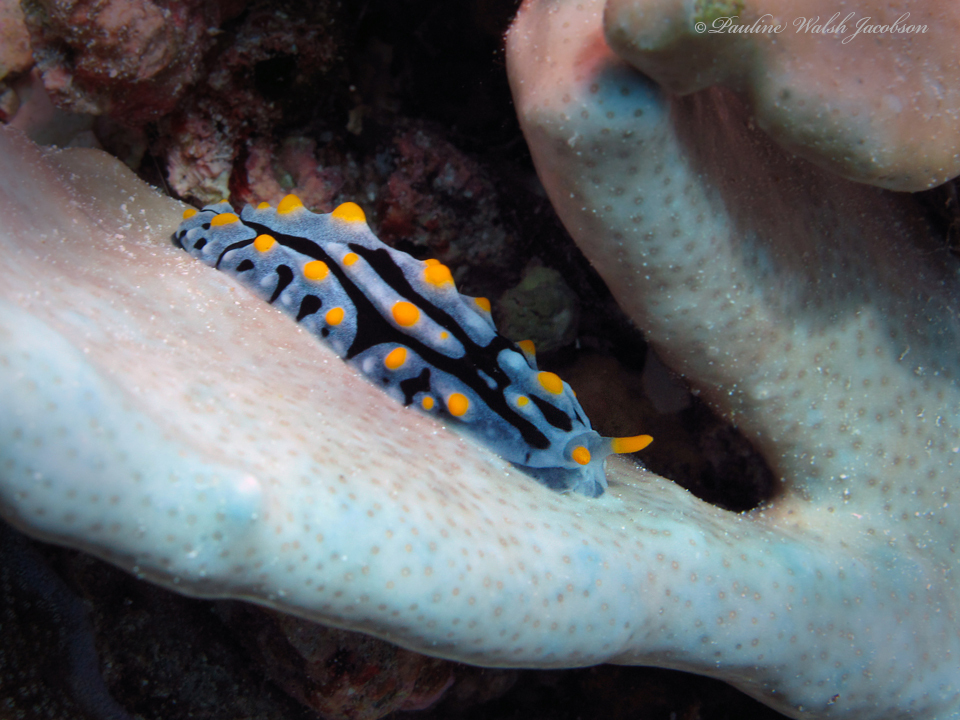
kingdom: Animalia
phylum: Mollusca
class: Gastropoda
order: Nudibranchia
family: Phyllidiidae
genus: Phyllidia
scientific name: Phyllidia varicosa
